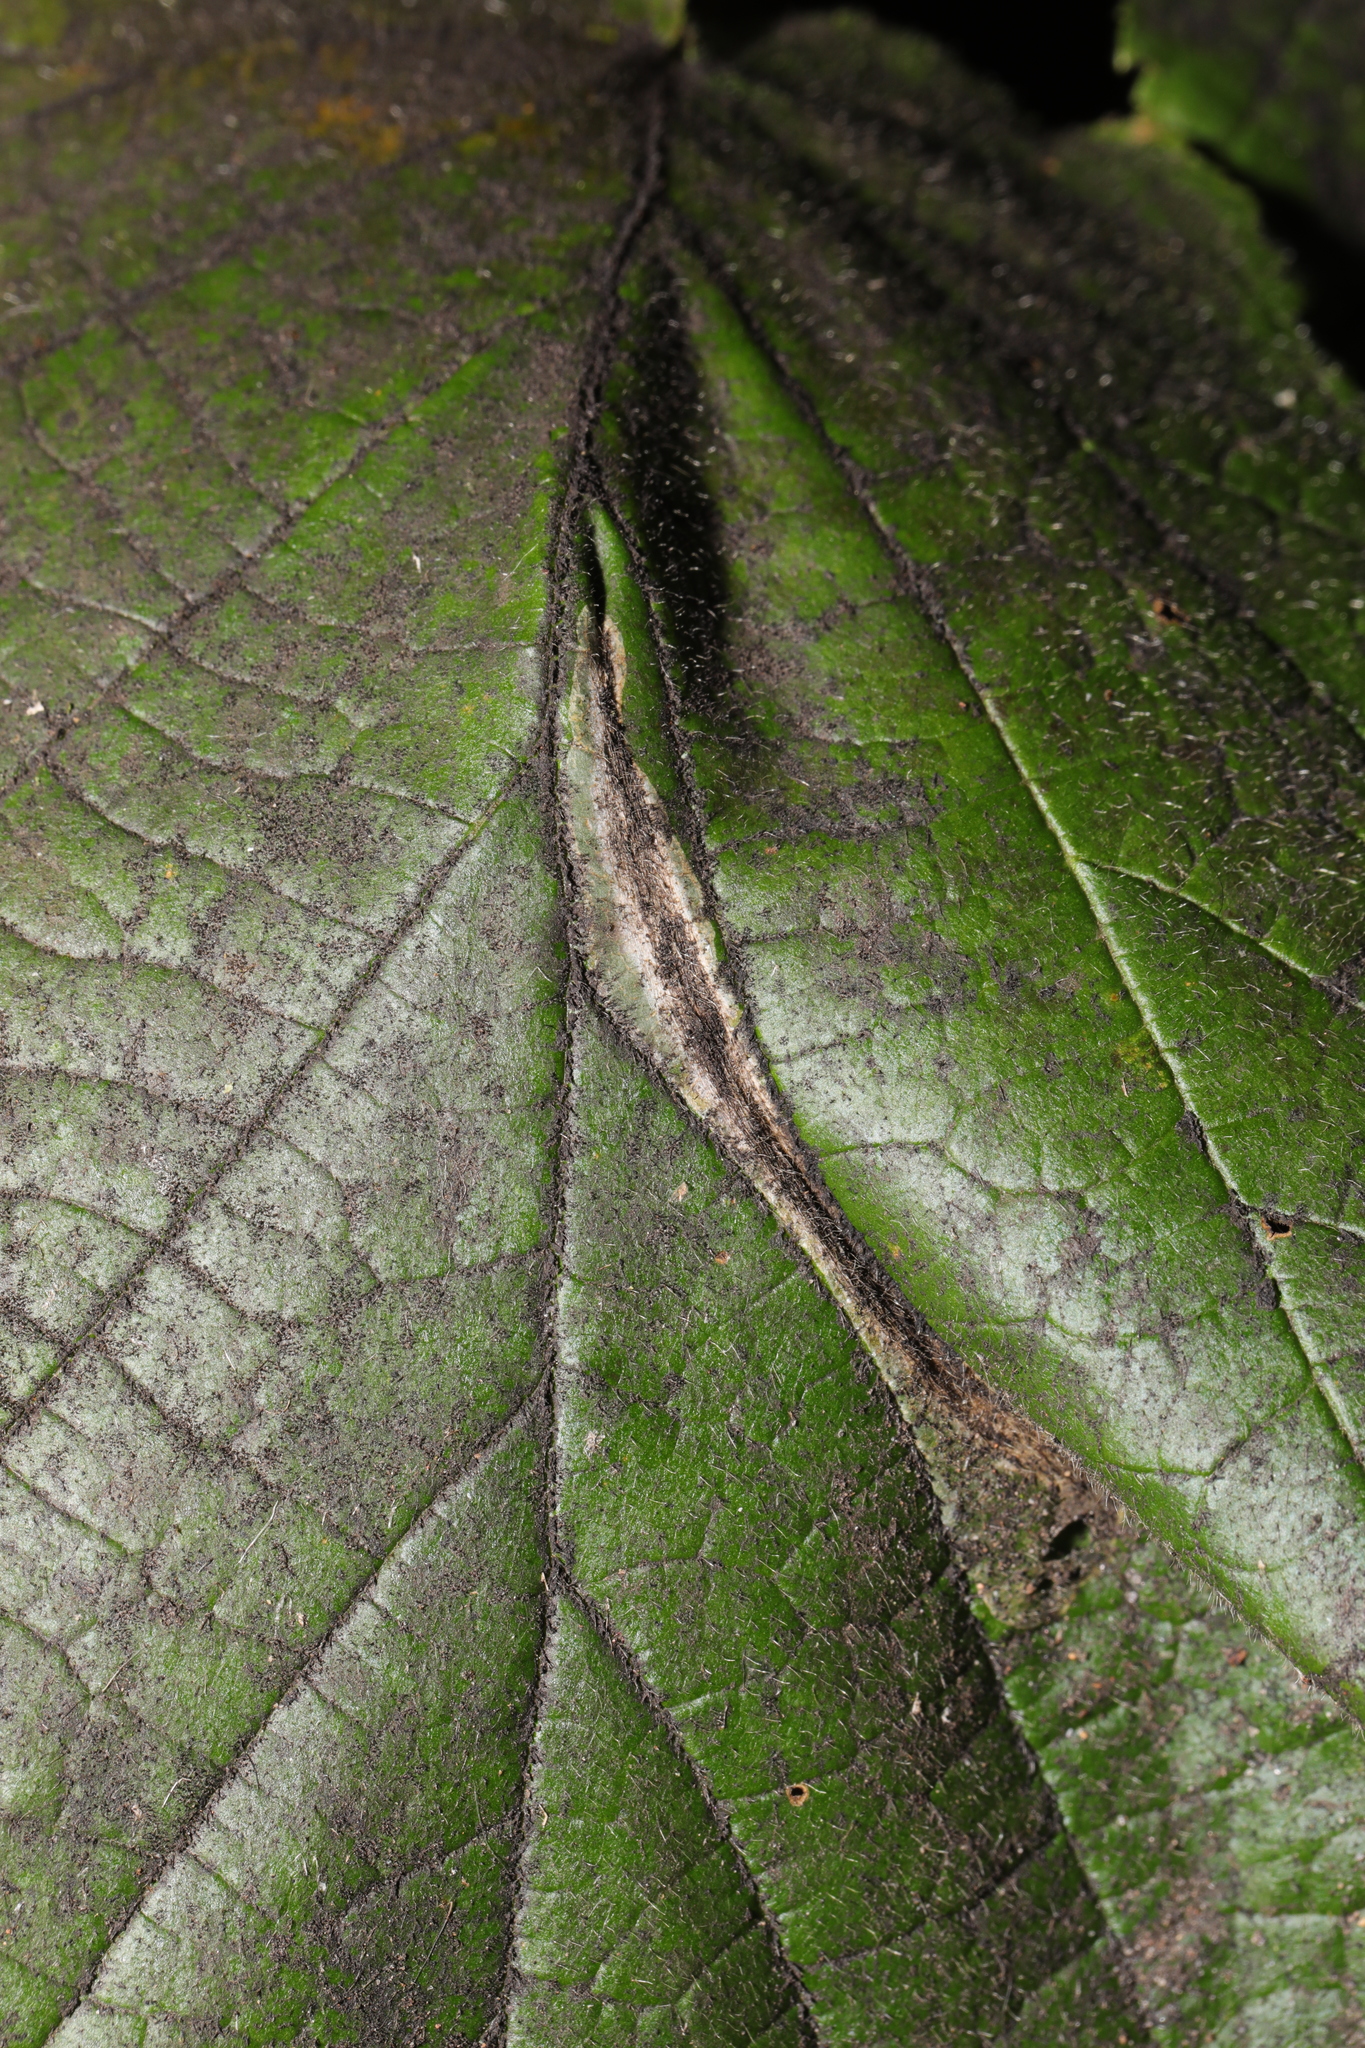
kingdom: Animalia
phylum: Arthropoda
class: Insecta
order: Lepidoptera
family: Gracillariidae
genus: Phyllonorycter
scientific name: Phyllonorycter nicellii
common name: Red hazel midget
